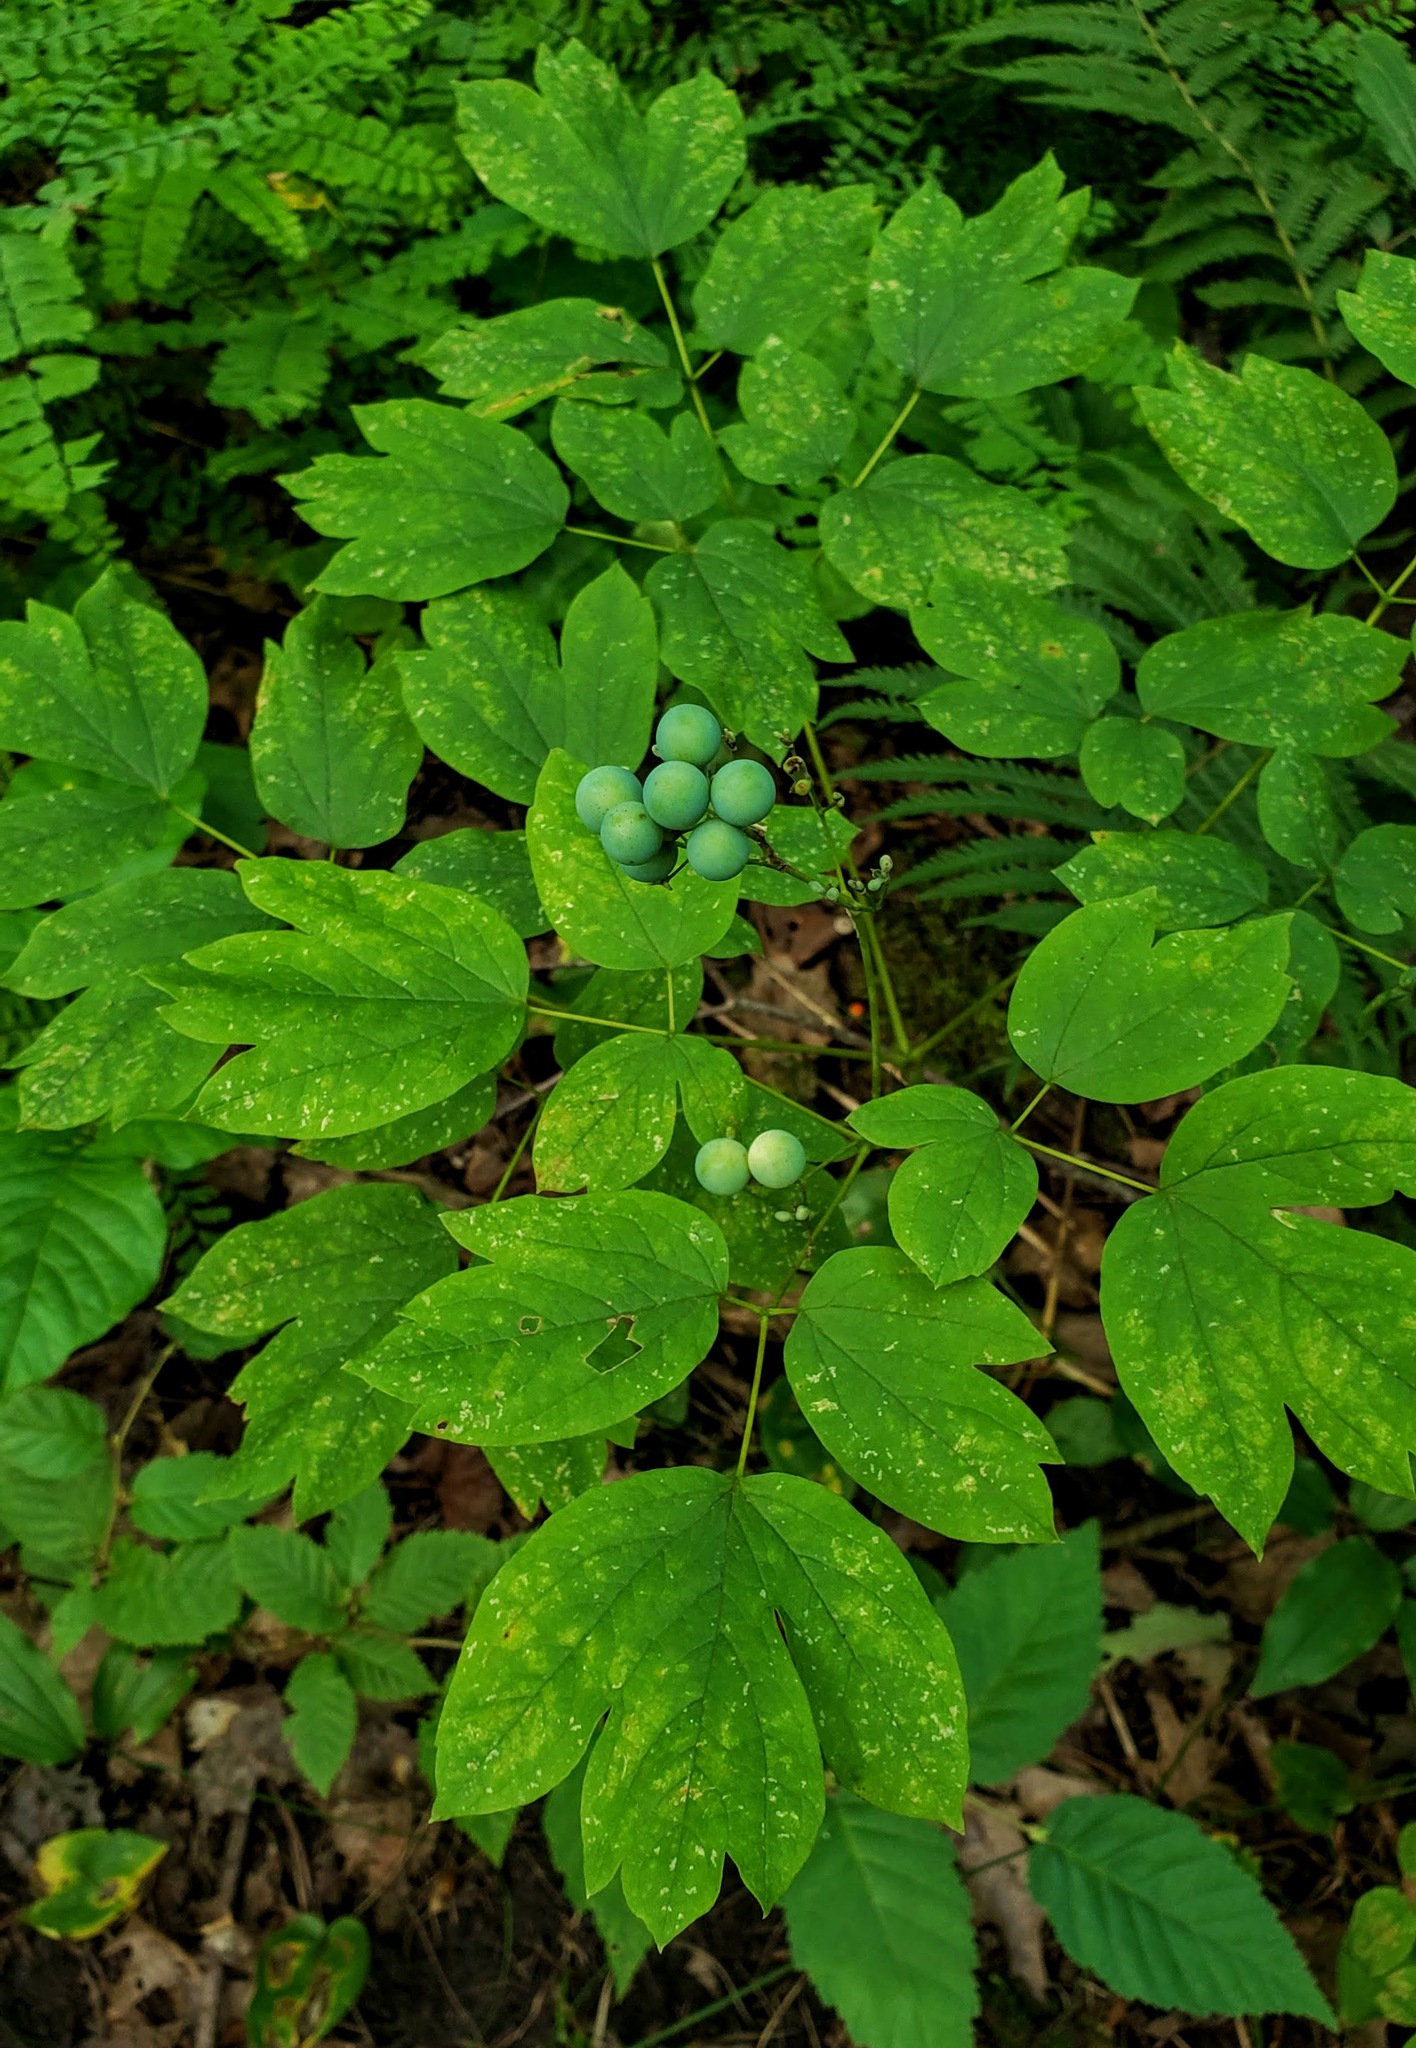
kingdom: Plantae
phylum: Tracheophyta
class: Magnoliopsida
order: Ranunculales
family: Berberidaceae
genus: Caulophyllum
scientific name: Caulophyllum thalictroides
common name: Blue cohosh
